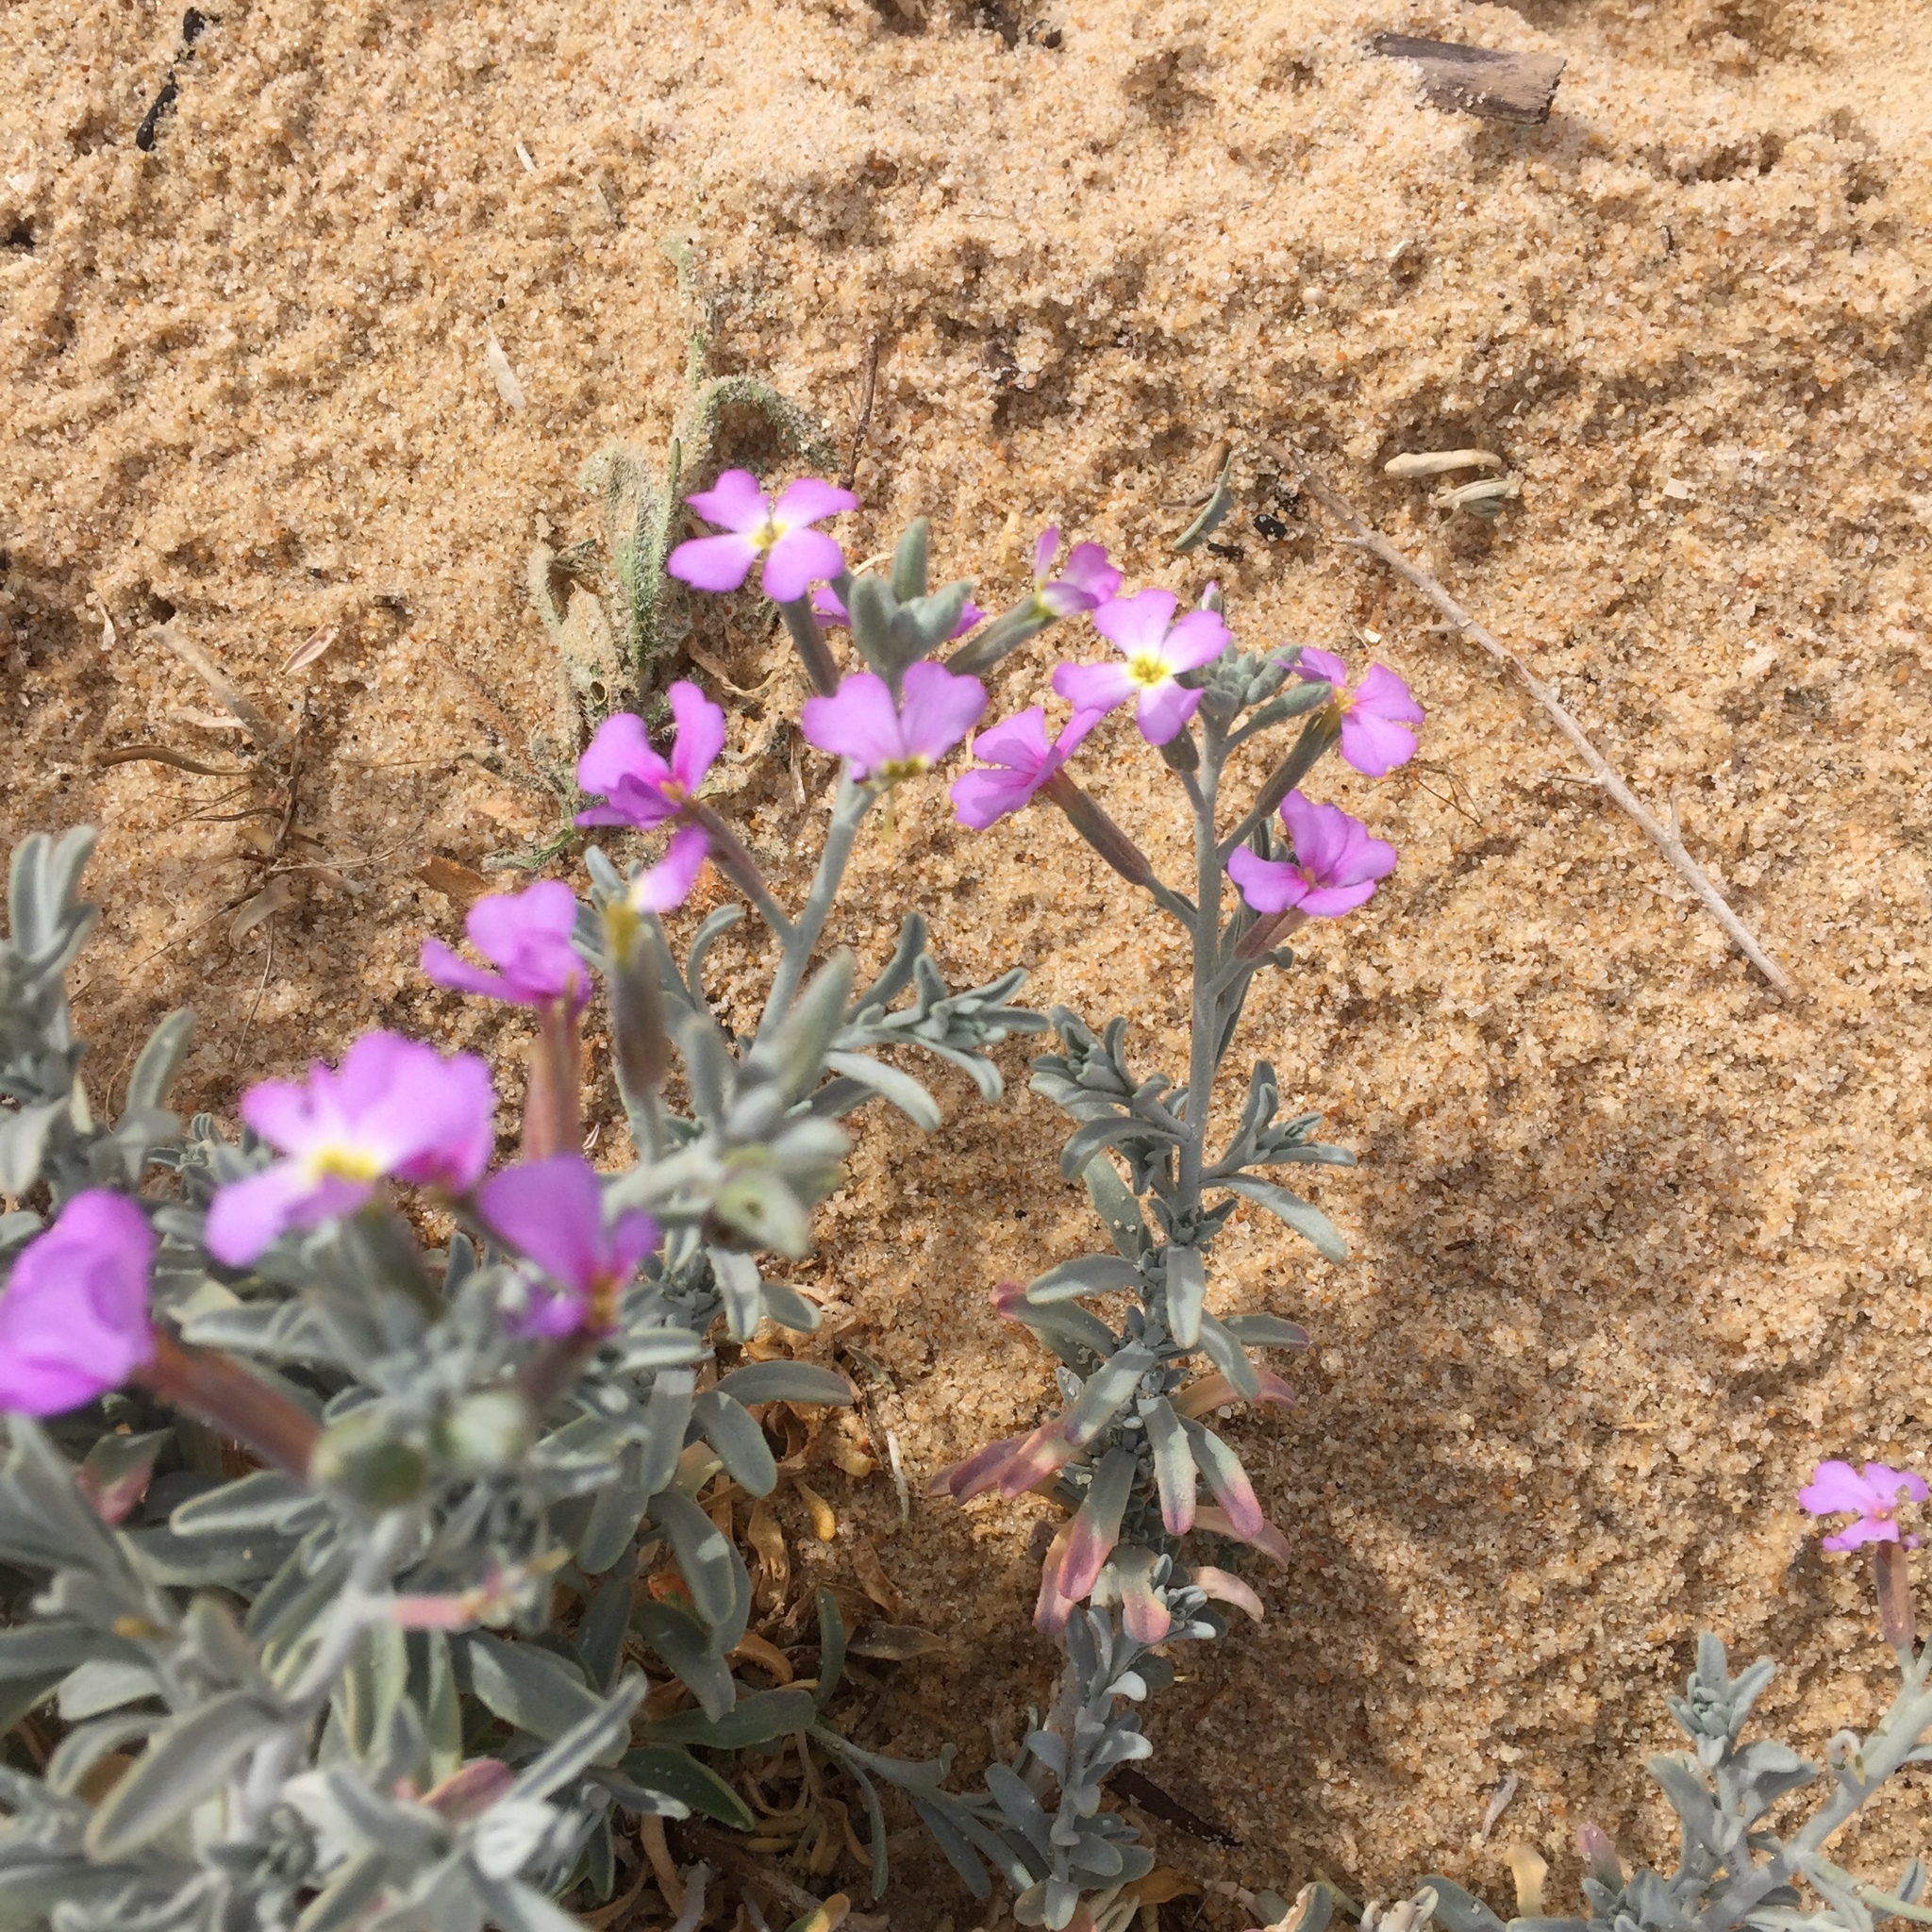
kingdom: Plantae
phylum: Tracheophyta
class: Magnoliopsida
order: Brassicales
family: Brassicaceae
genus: Marcuskochia
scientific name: Marcuskochia littorea
